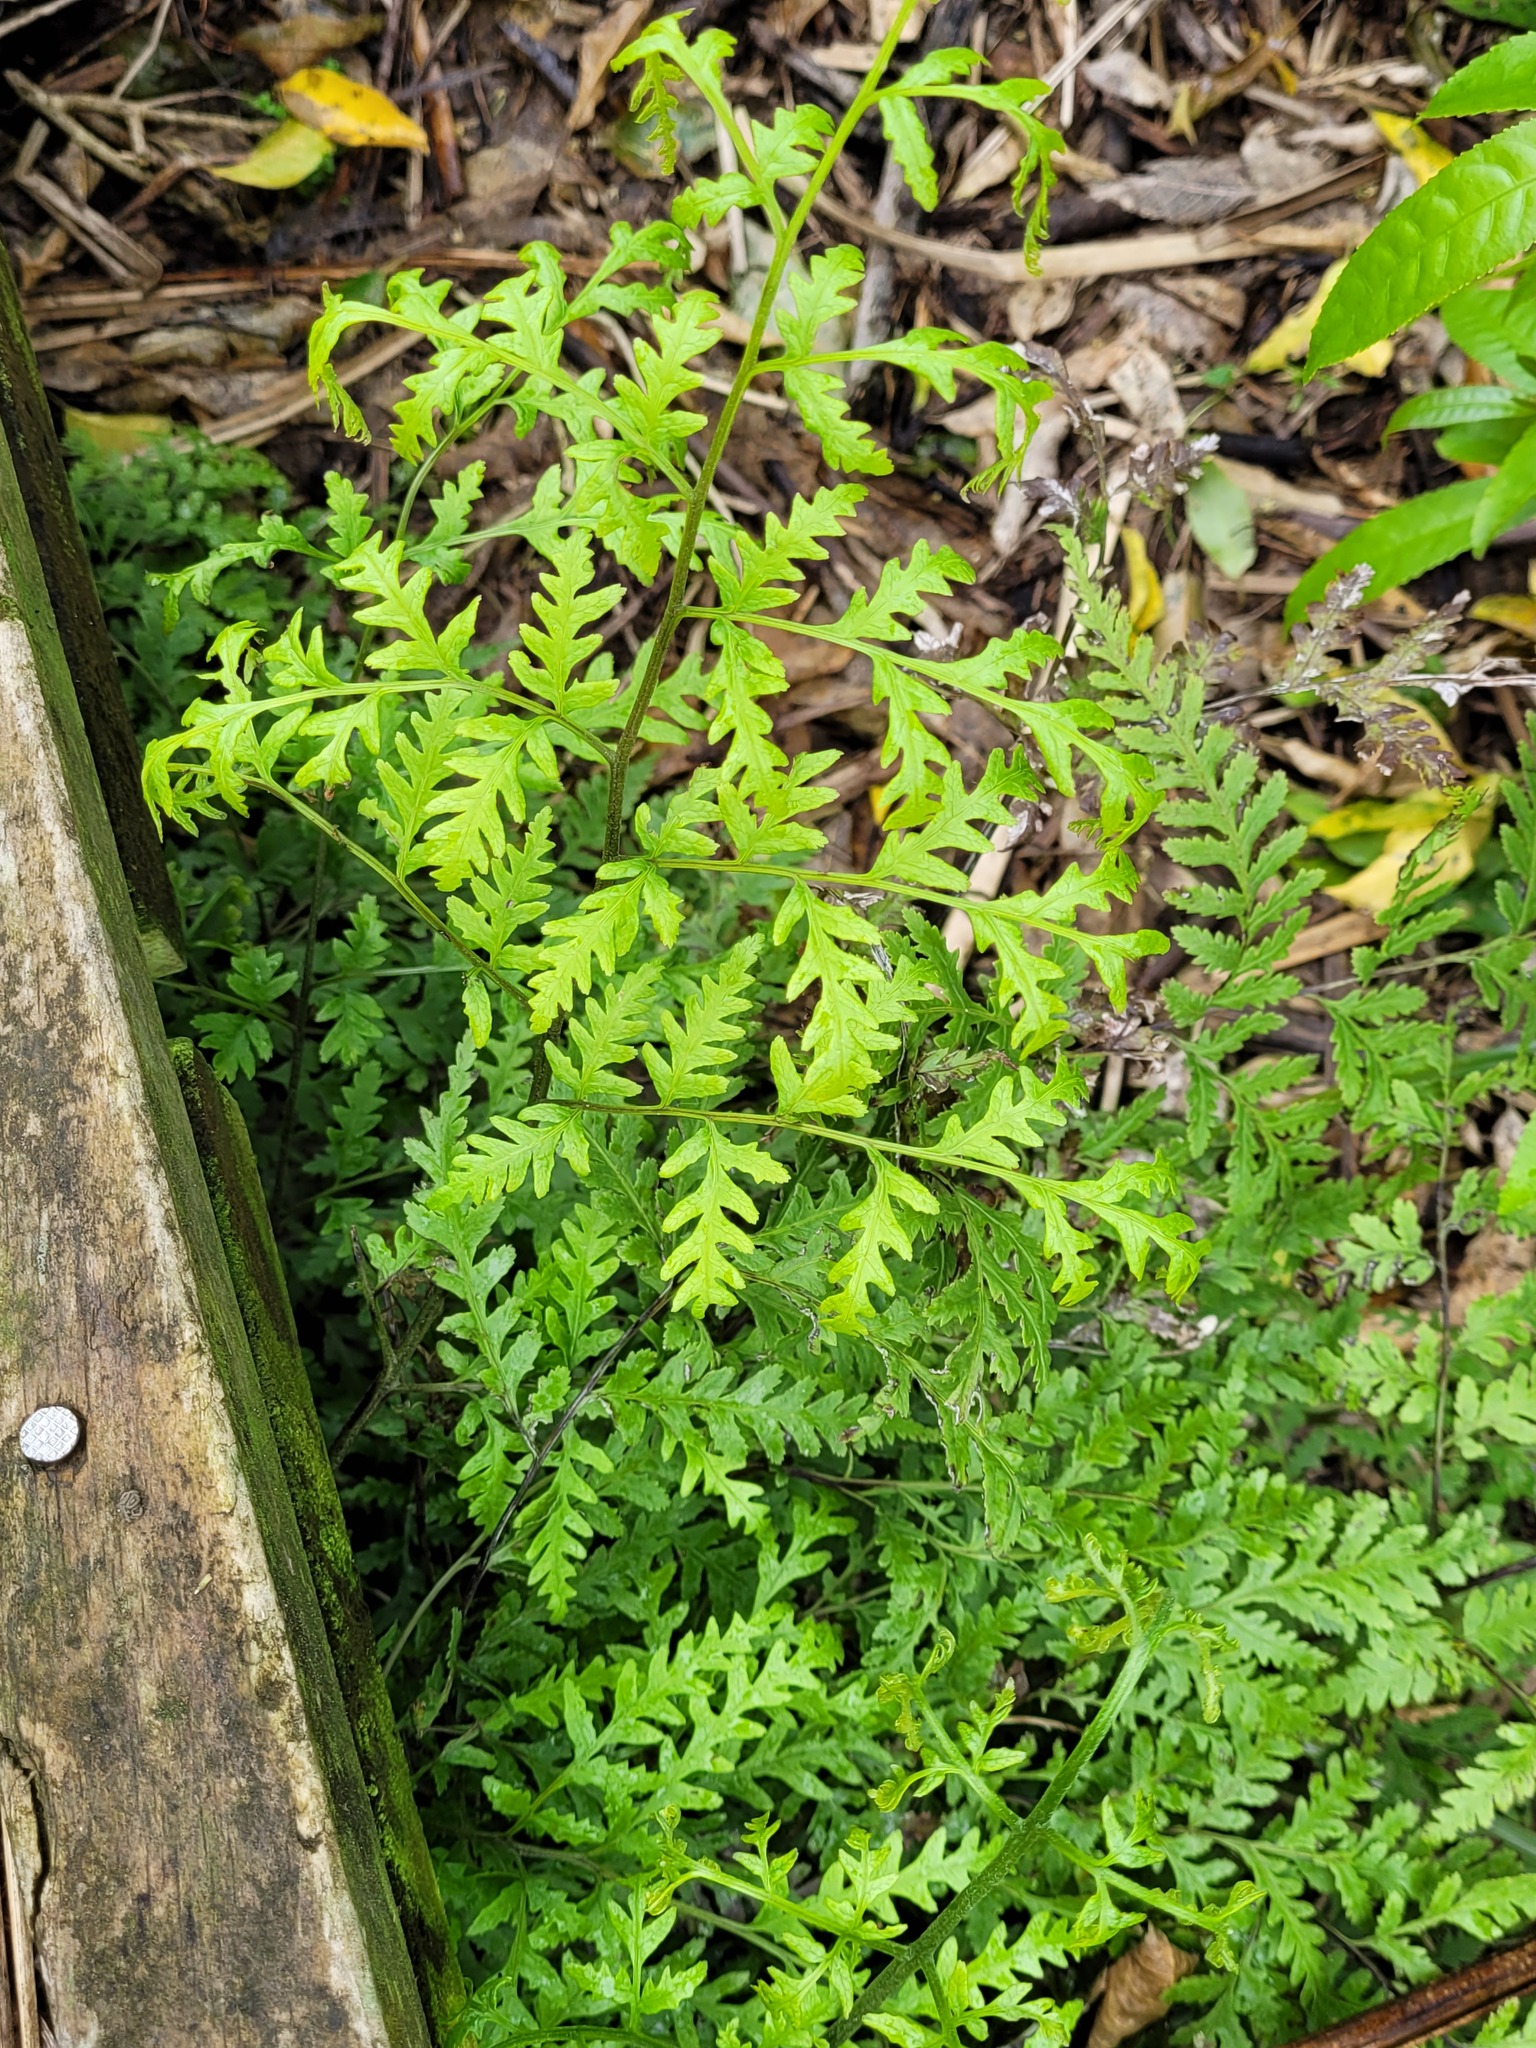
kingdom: Plantae
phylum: Tracheophyta
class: Polypodiopsida
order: Polypodiales
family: Pteridaceae
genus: Pteris
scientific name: Pteris macilenta
